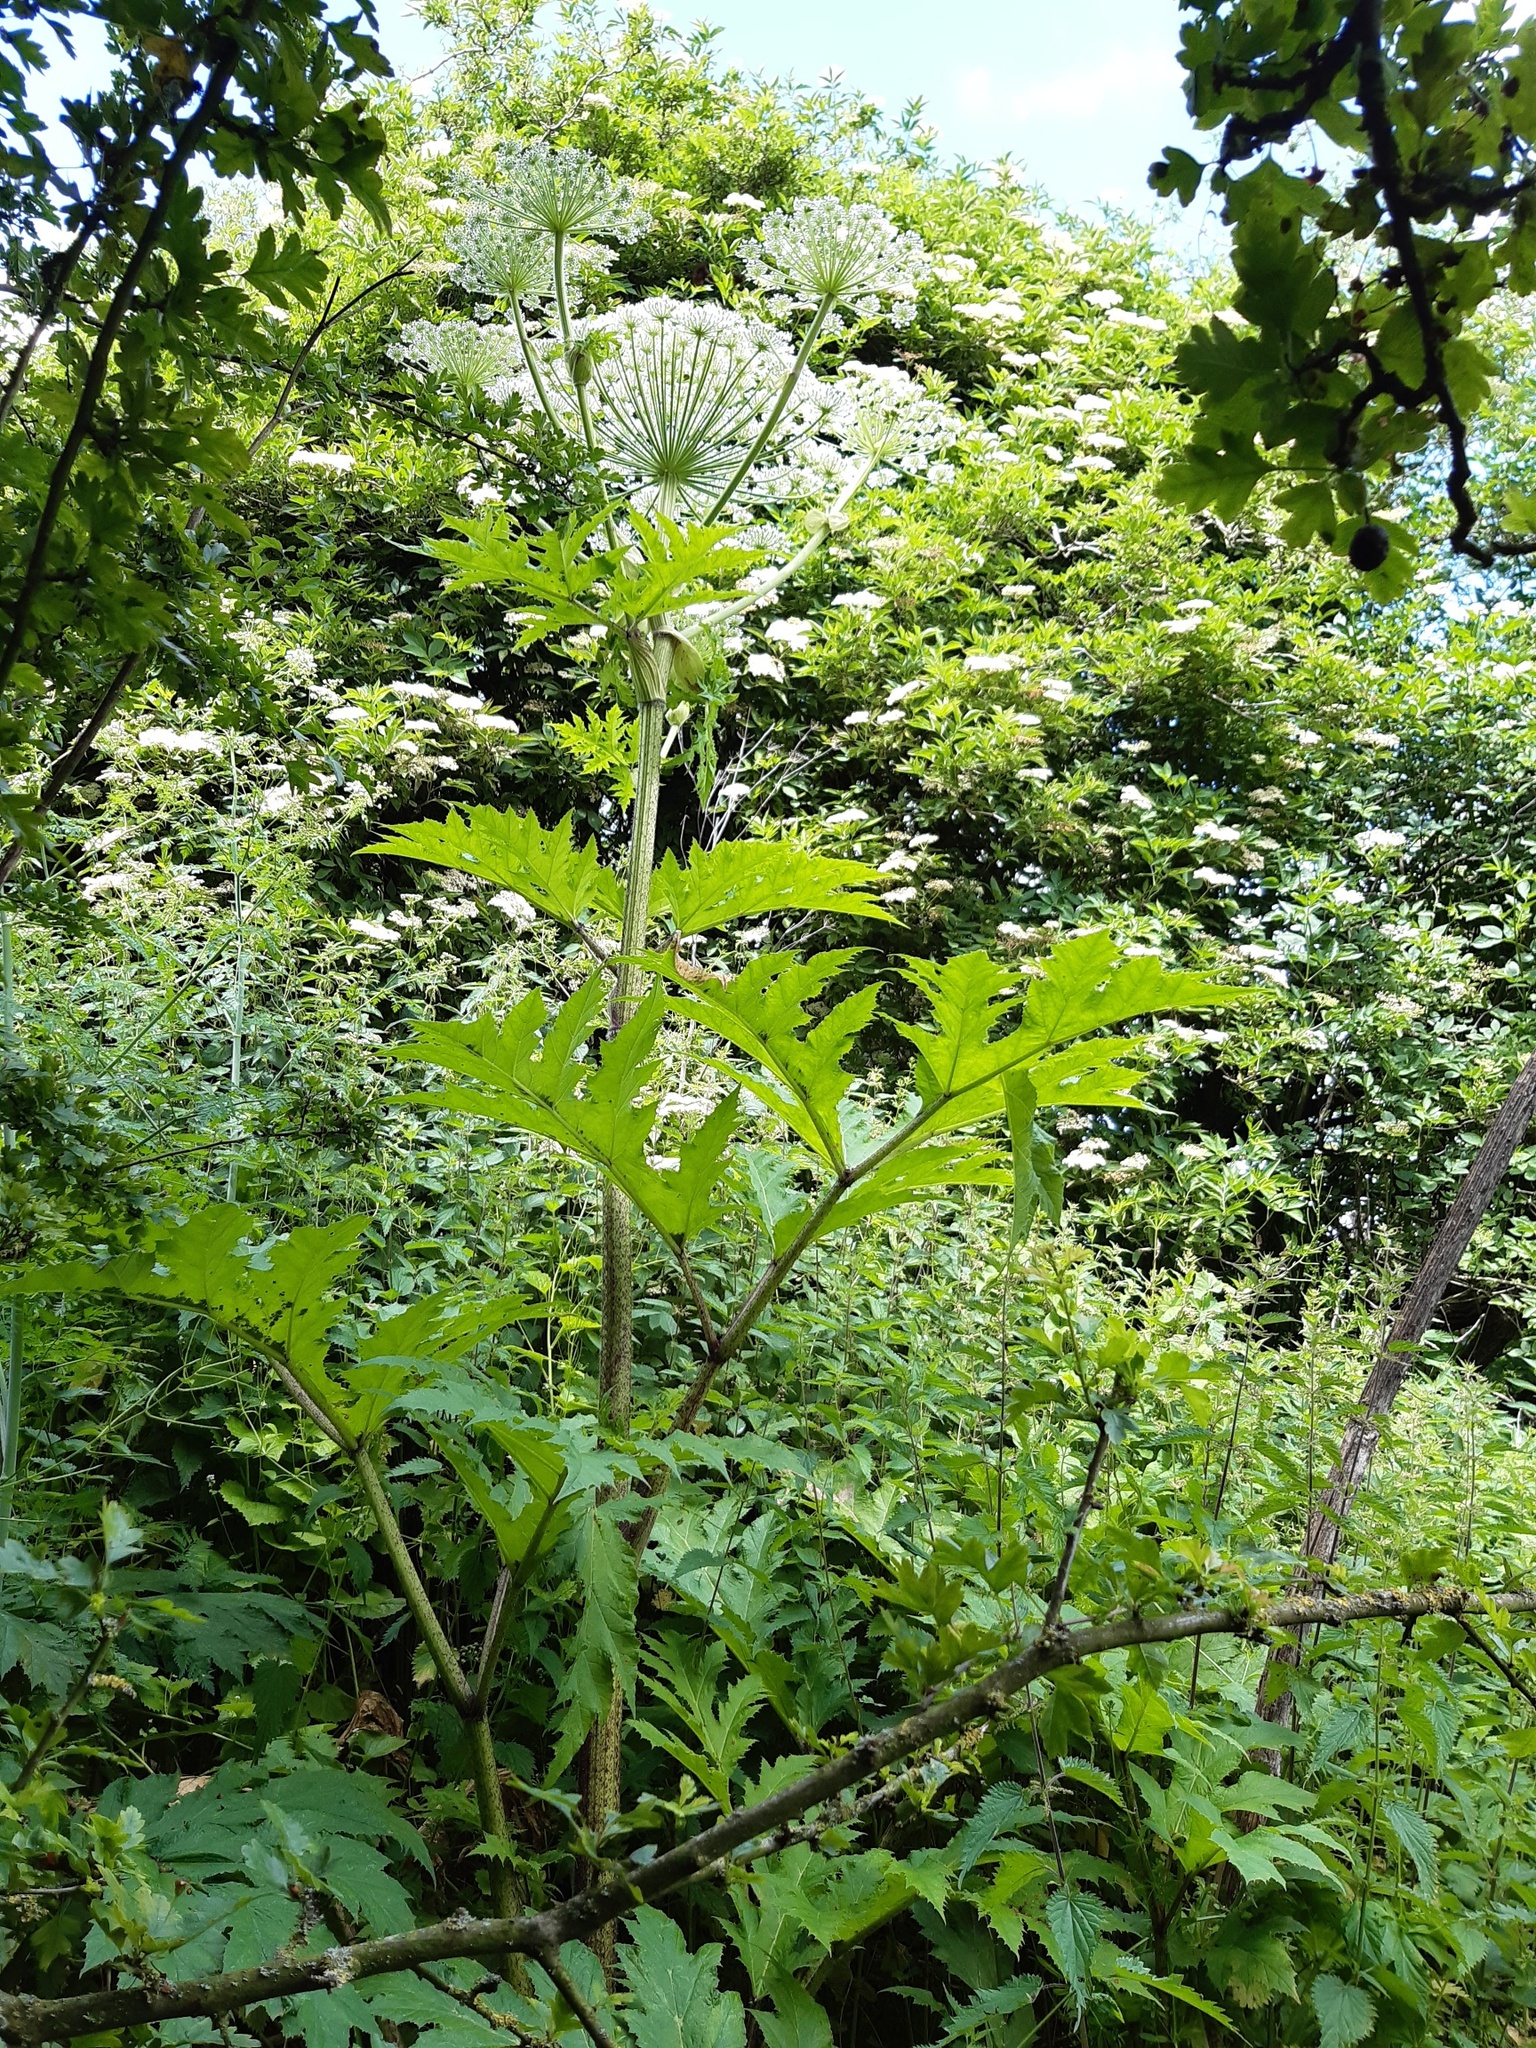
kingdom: Plantae
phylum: Tracheophyta
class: Magnoliopsida
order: Apiales
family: Apiaceae
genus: Heracleum
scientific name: Heracleum mantegazzianum
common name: Giant hogweed
